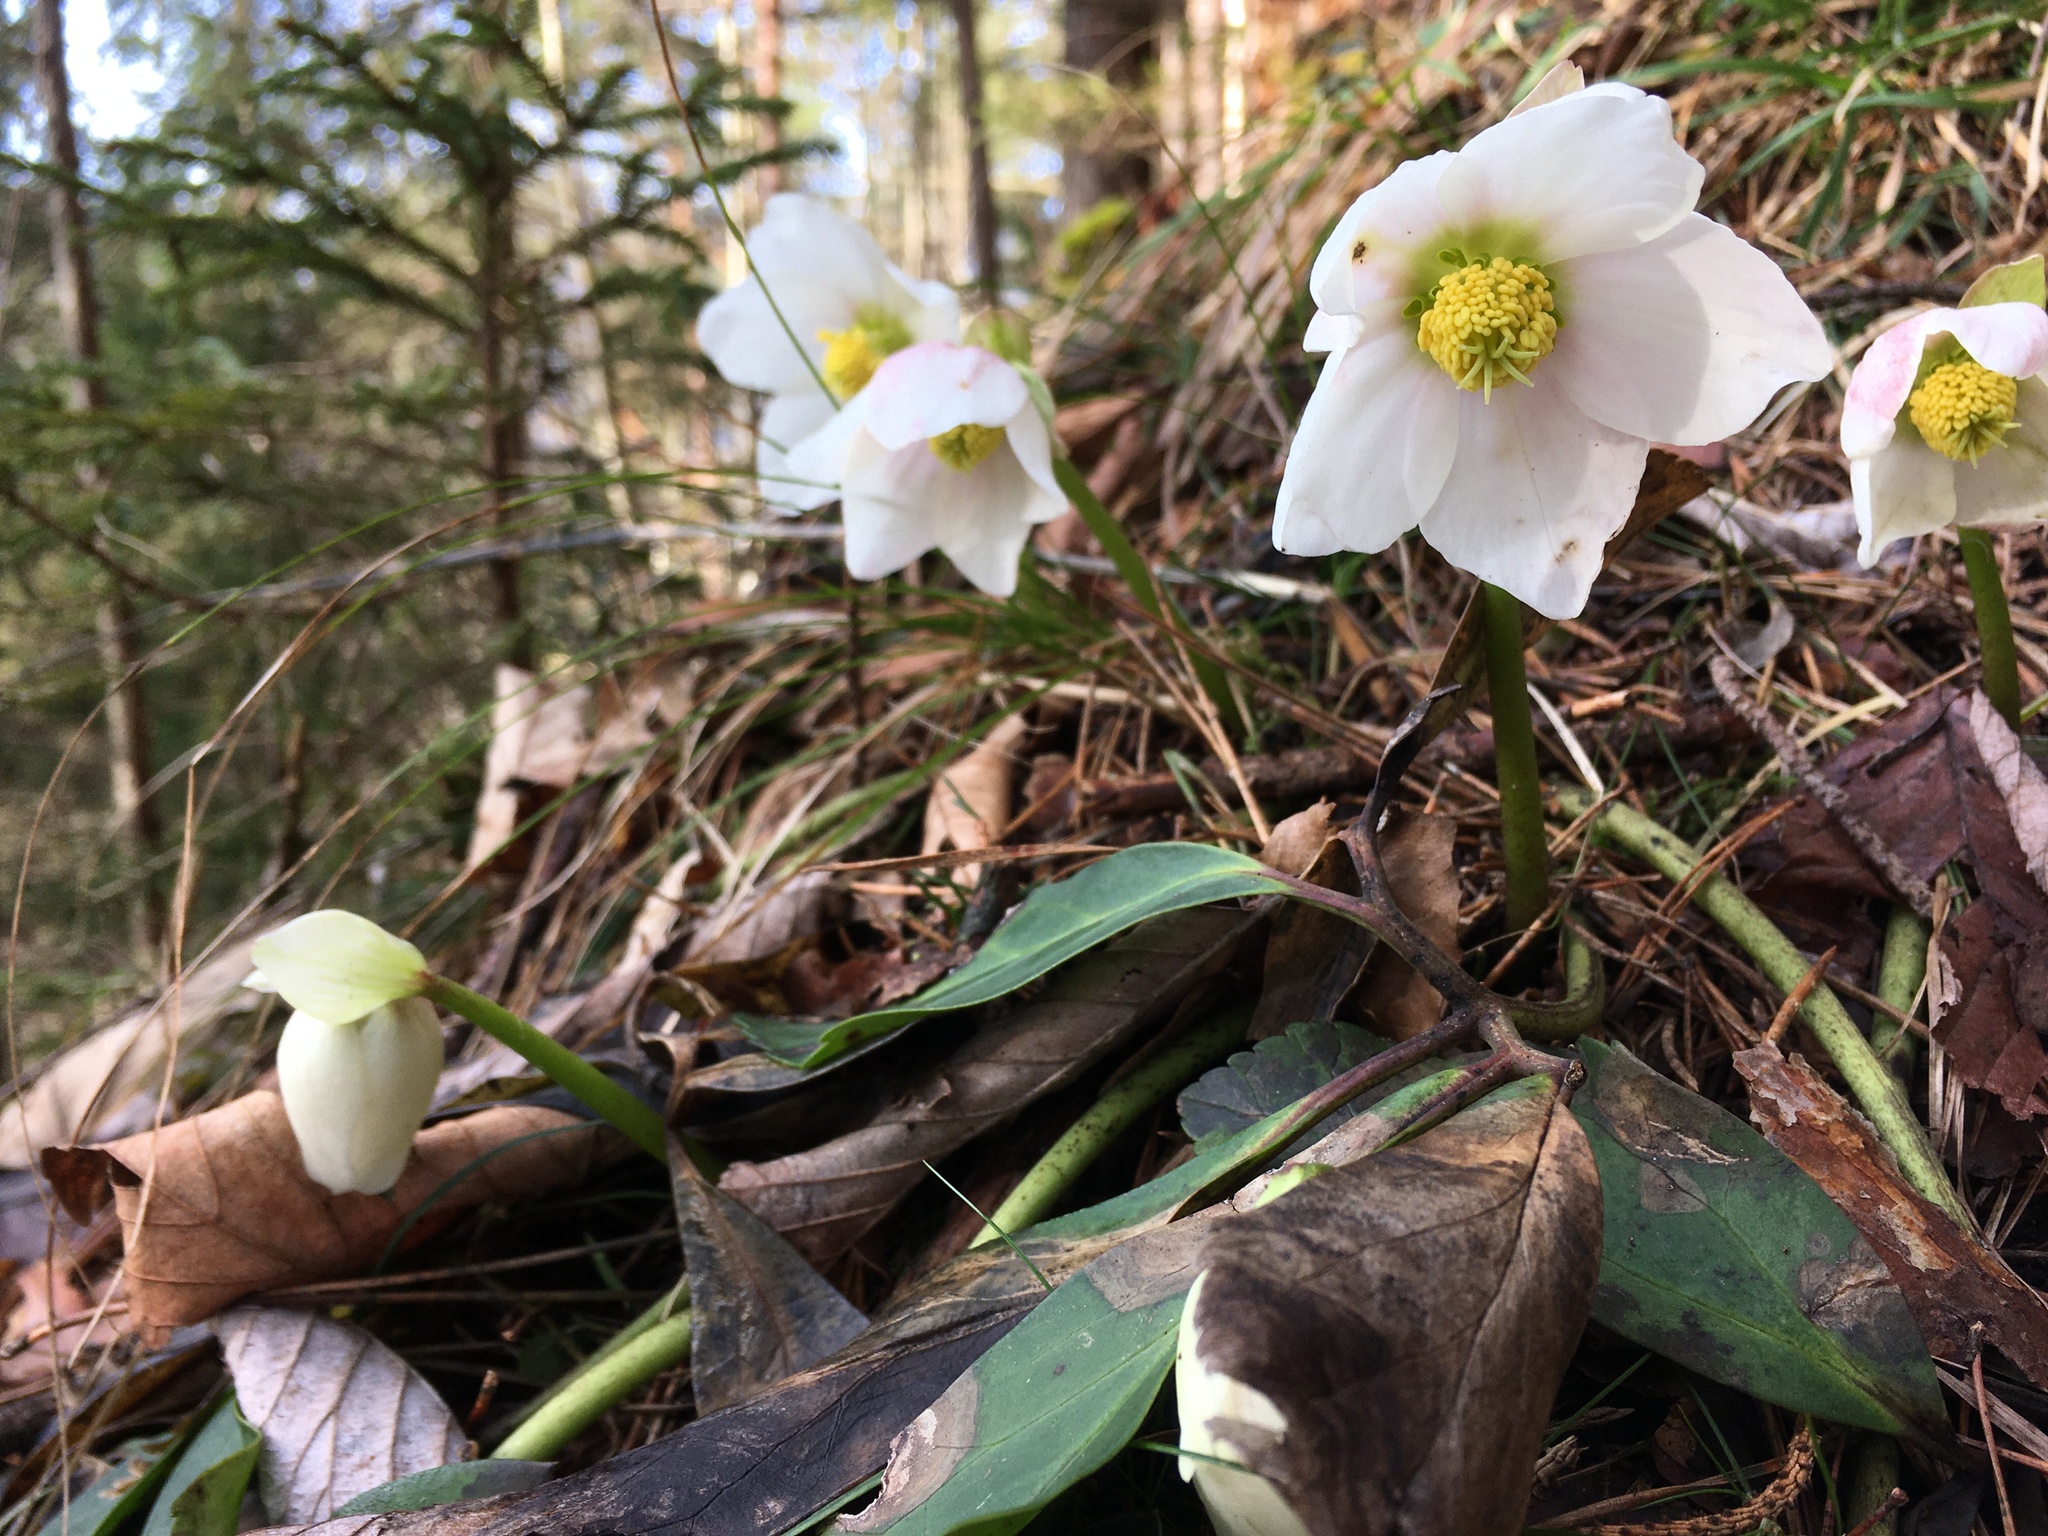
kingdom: Plantae
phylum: Tracheophyta
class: Magnoliopsida
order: Ranunculales
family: Ranunculaceae
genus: Helleborus
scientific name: Helleborus niger
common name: Black hellebore
